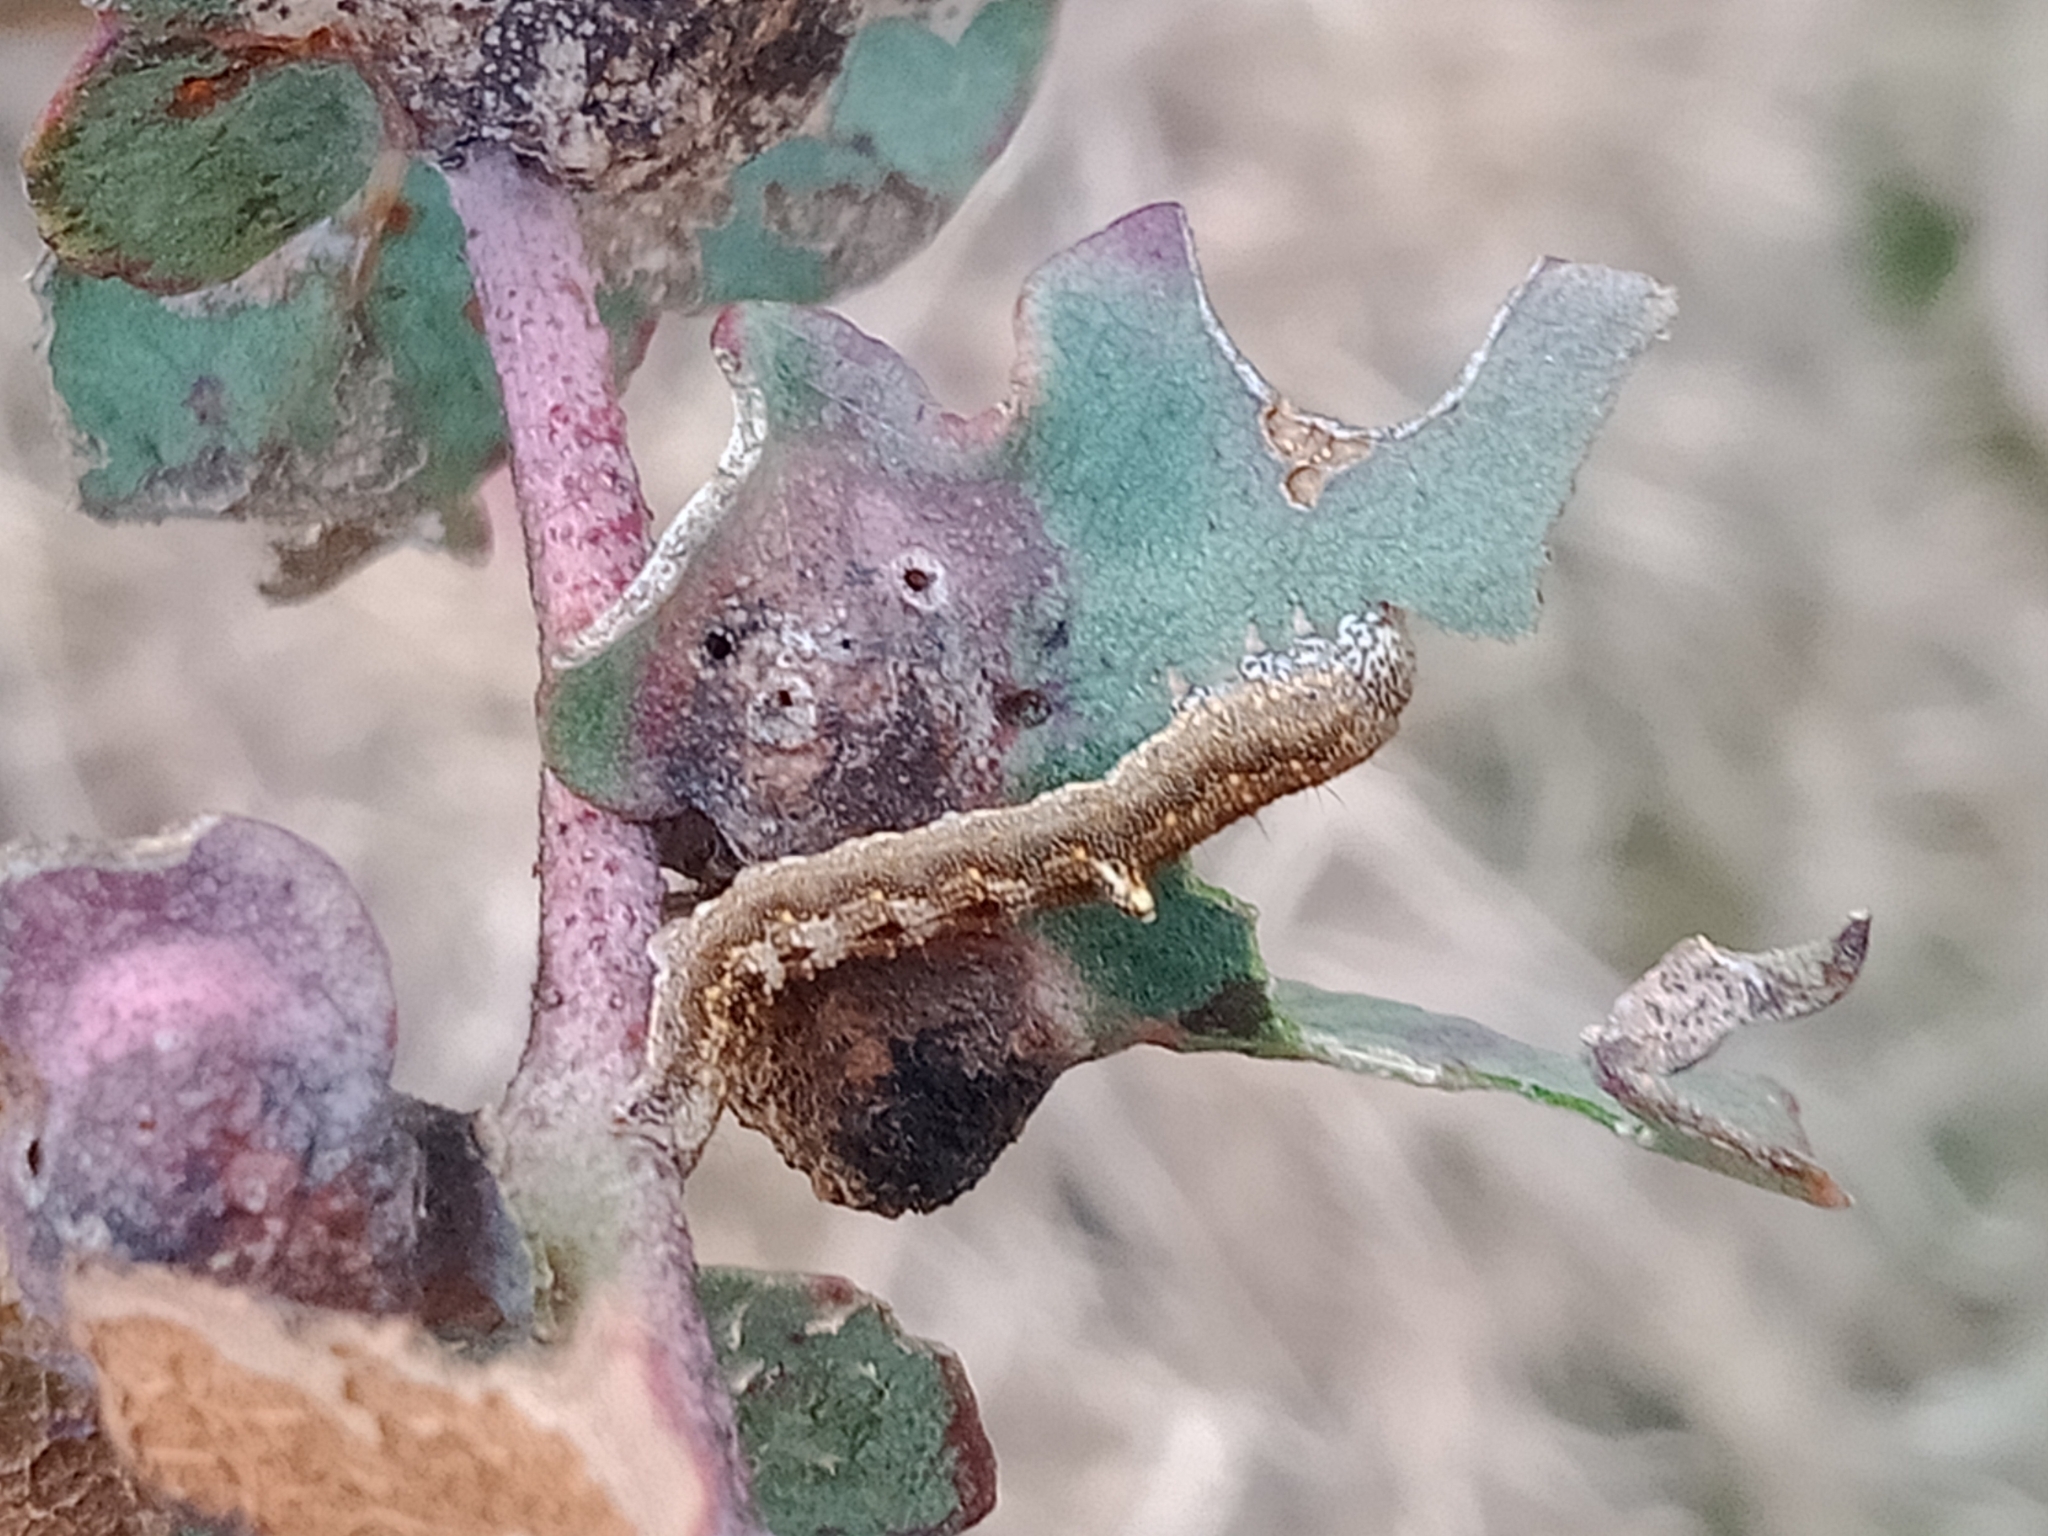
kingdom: Plantae
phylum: Tracheophyta
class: Magnoliopsida
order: Myrtales
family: Myrtaceae
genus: Eucalyptus
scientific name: Eucalyptus nortonii
